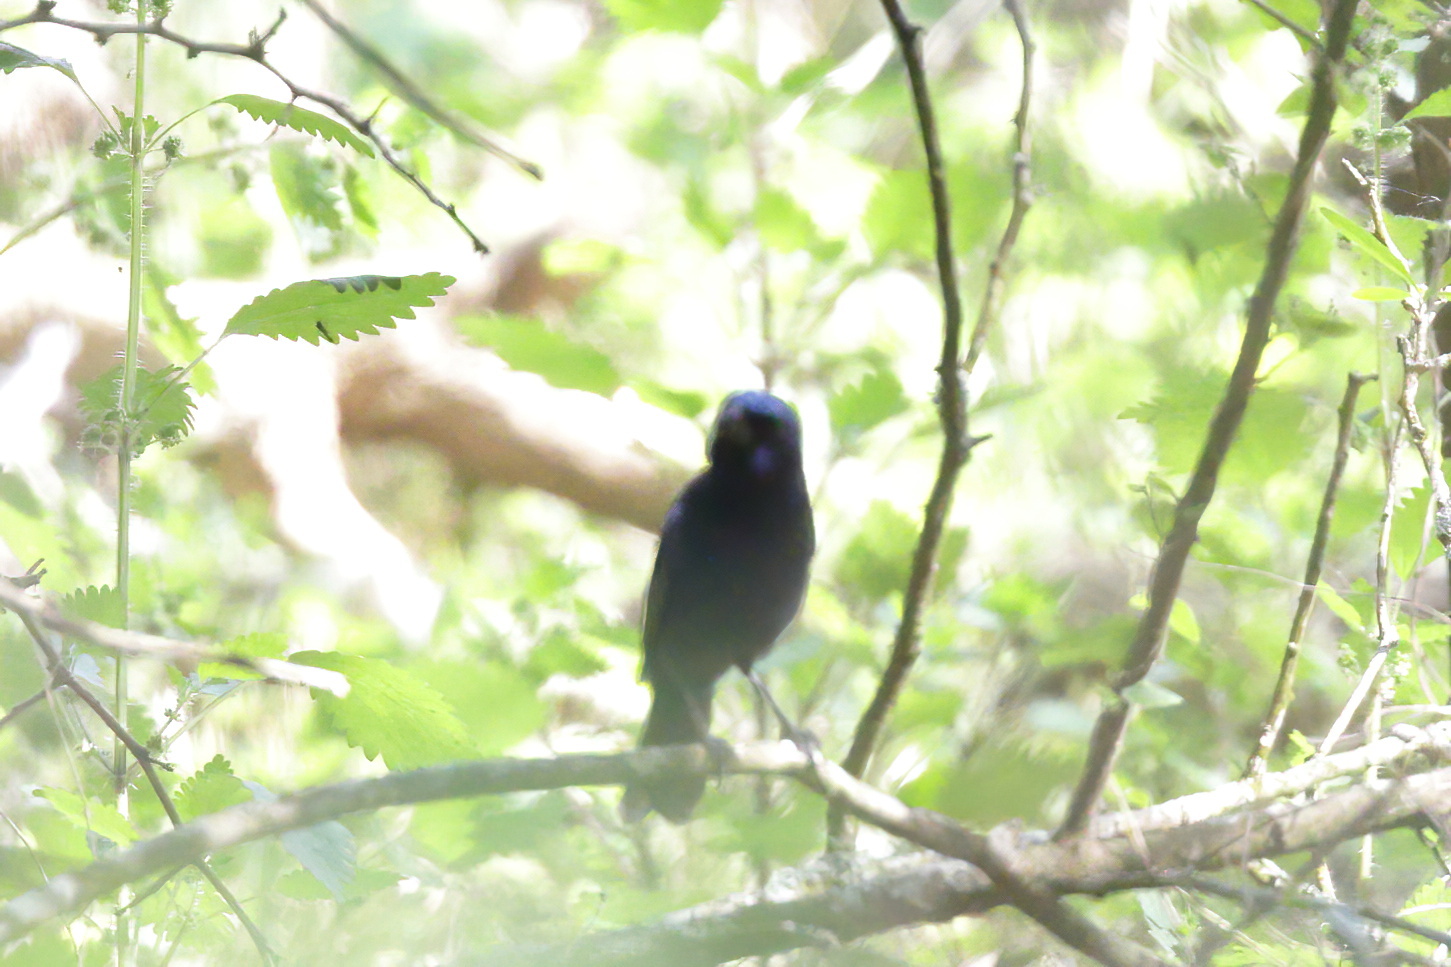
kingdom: Animalia
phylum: Chordata
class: Aves
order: Passeriformes
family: Cardinalidae
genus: Cyanocompsa
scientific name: Cyanocompsa parellina
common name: Blue bunting
